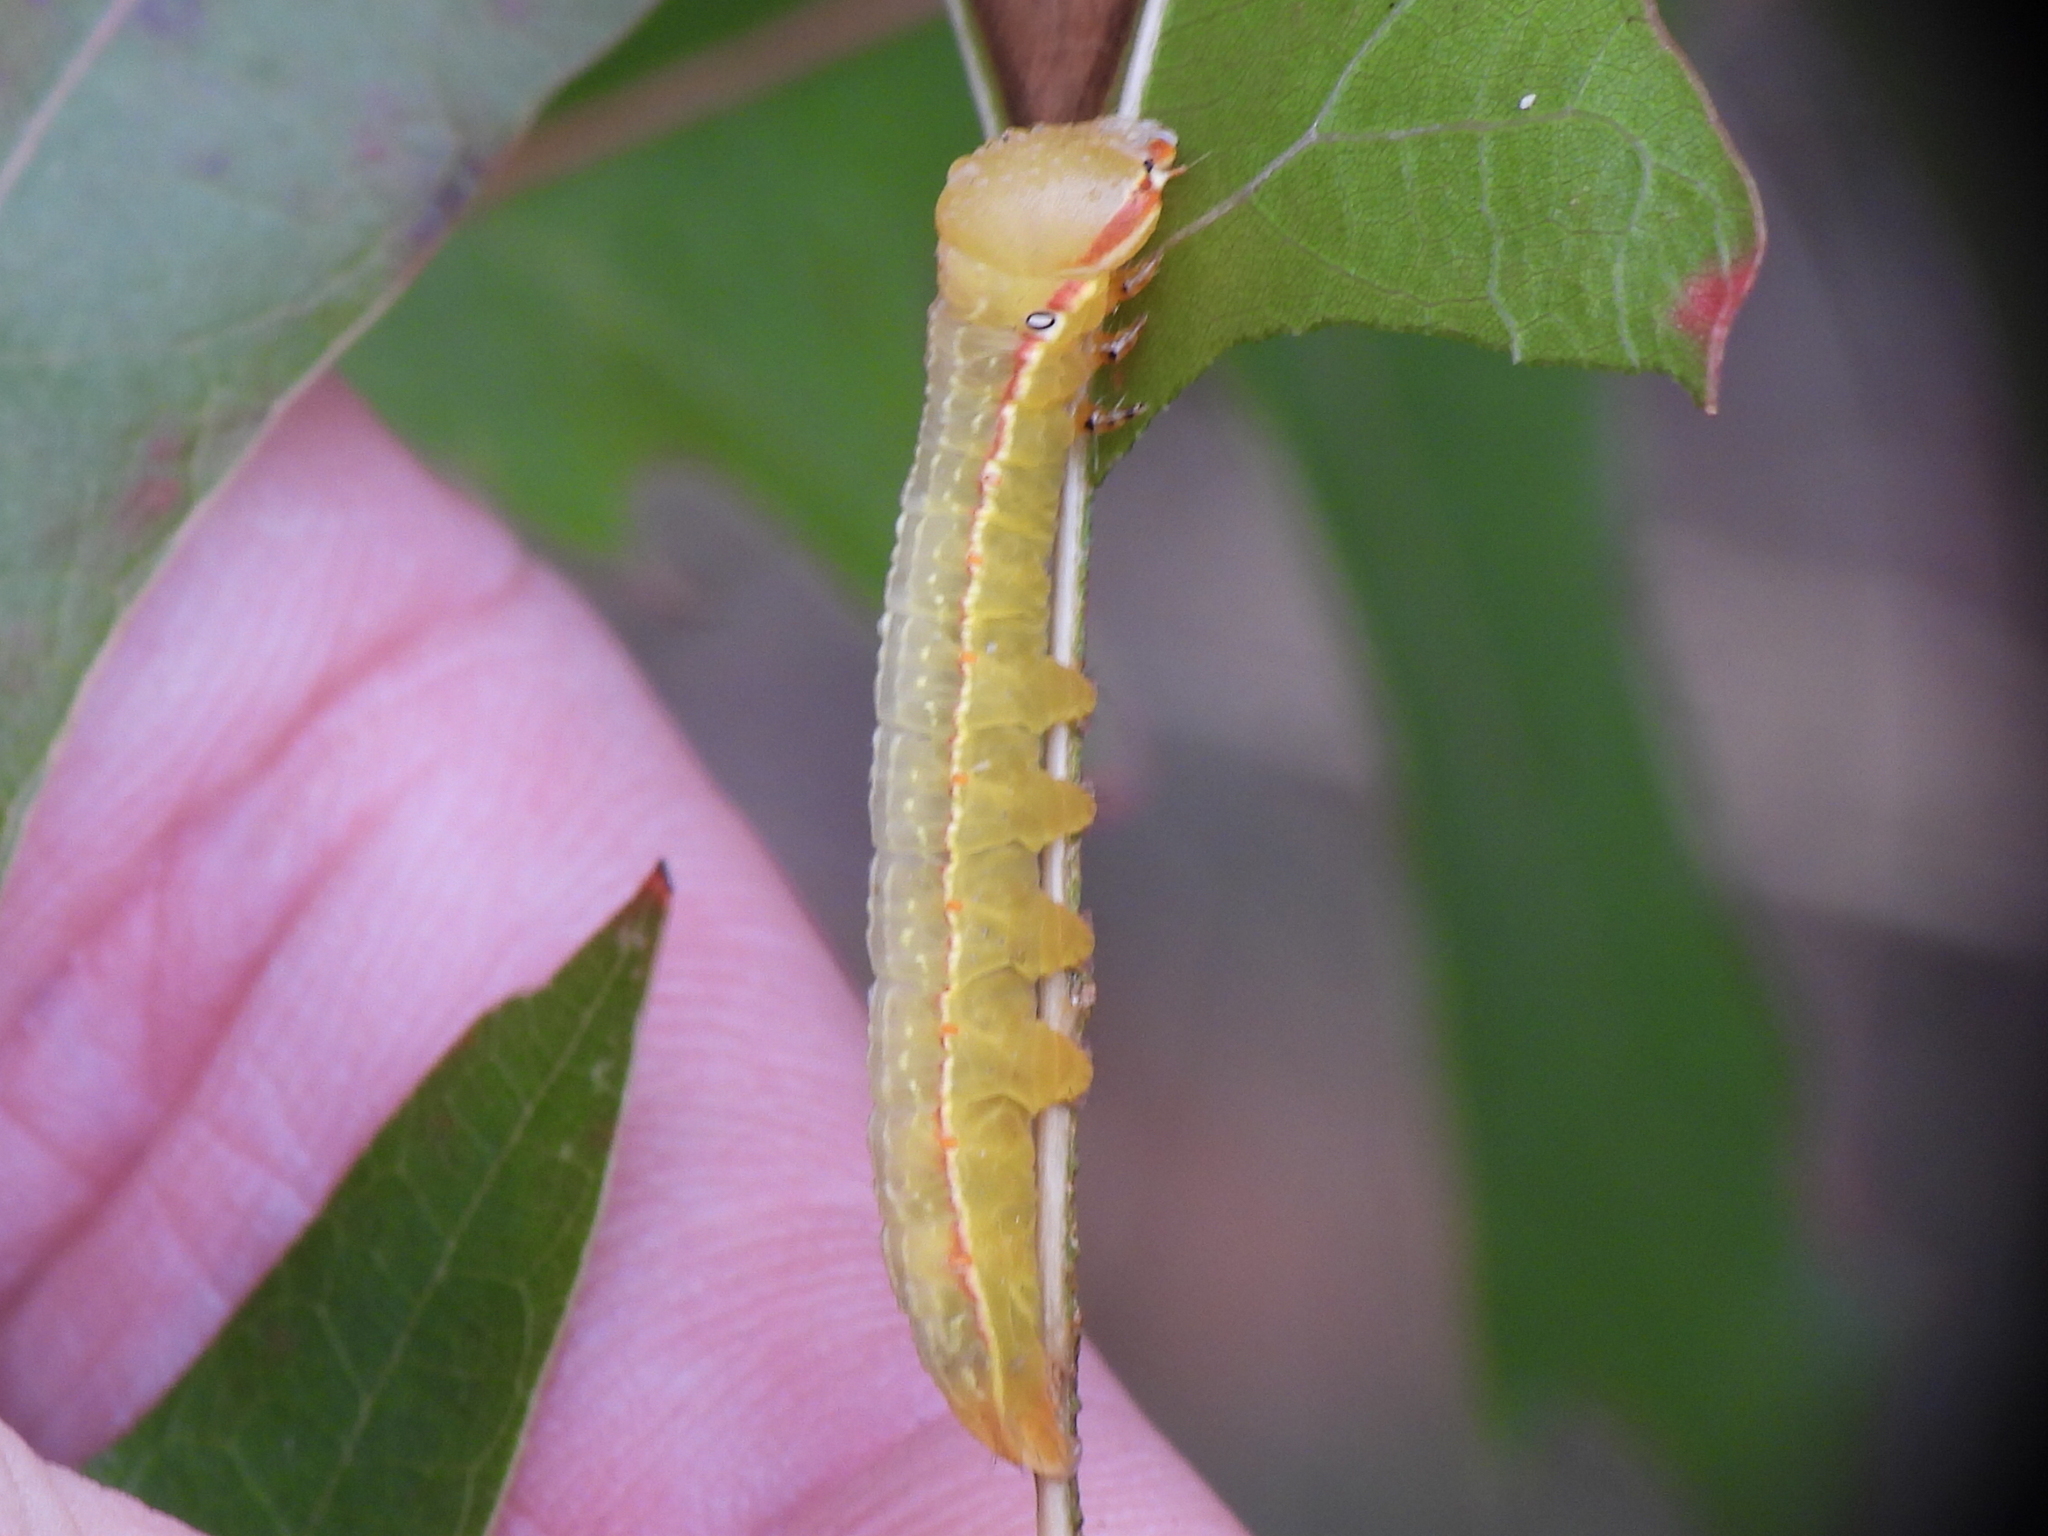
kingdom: Animalia
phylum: Arthropoda
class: Insecta
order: Lepidoptera
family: Notodontidae
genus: Peridea
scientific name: Peridea angulosa
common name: Angulose prominent
